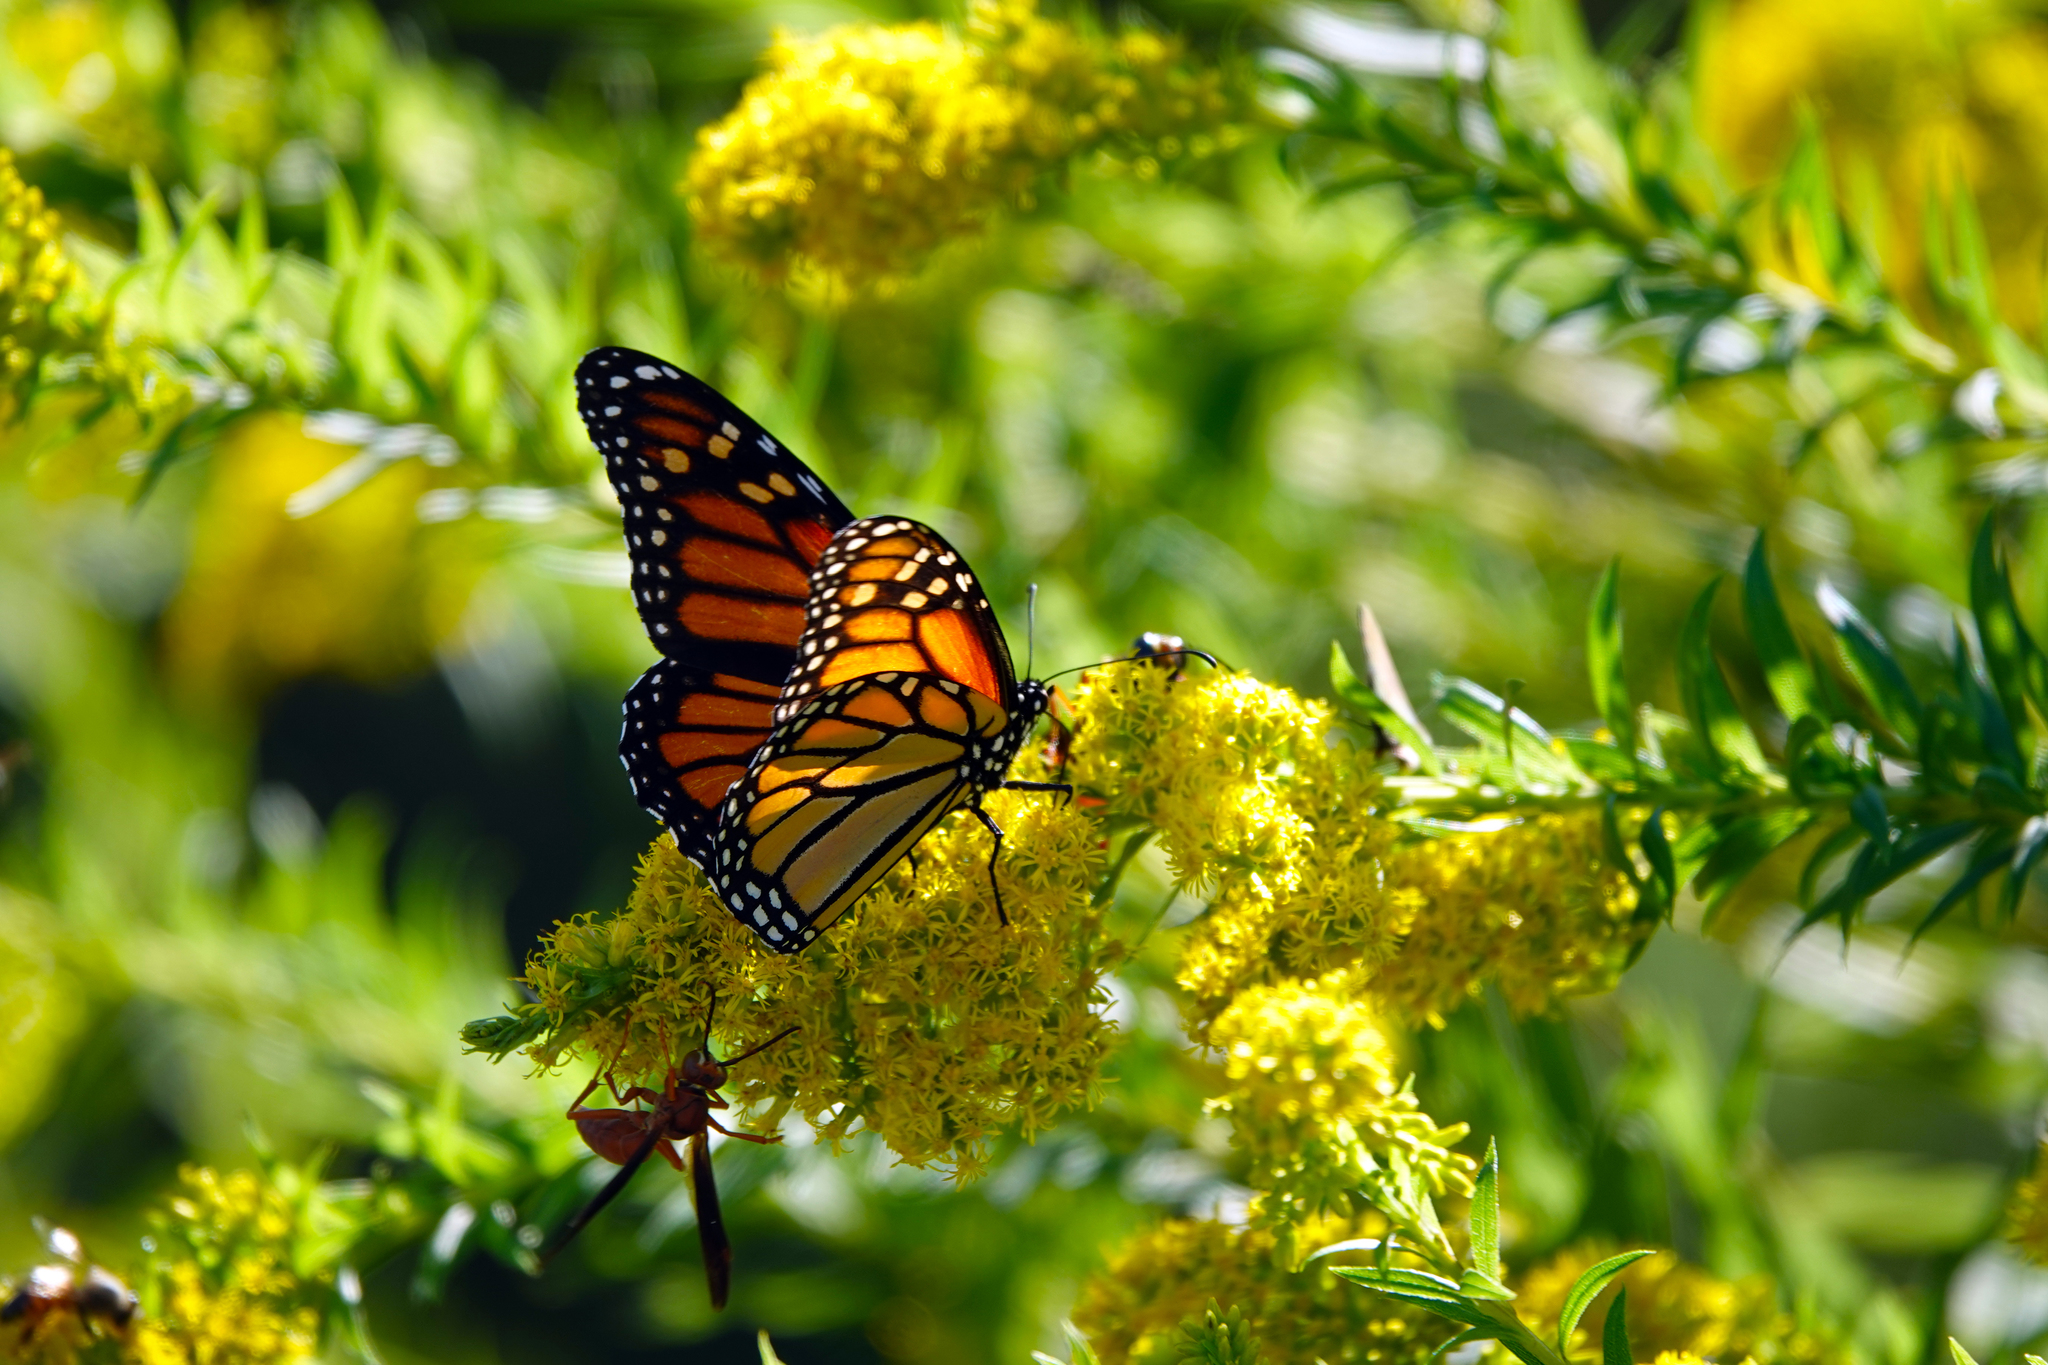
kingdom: Animalia
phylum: Arthropoda
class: Insecta
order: Lepidoptera
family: Nymphalidae
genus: Danaus
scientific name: Danaus plexippus
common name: Monarch
